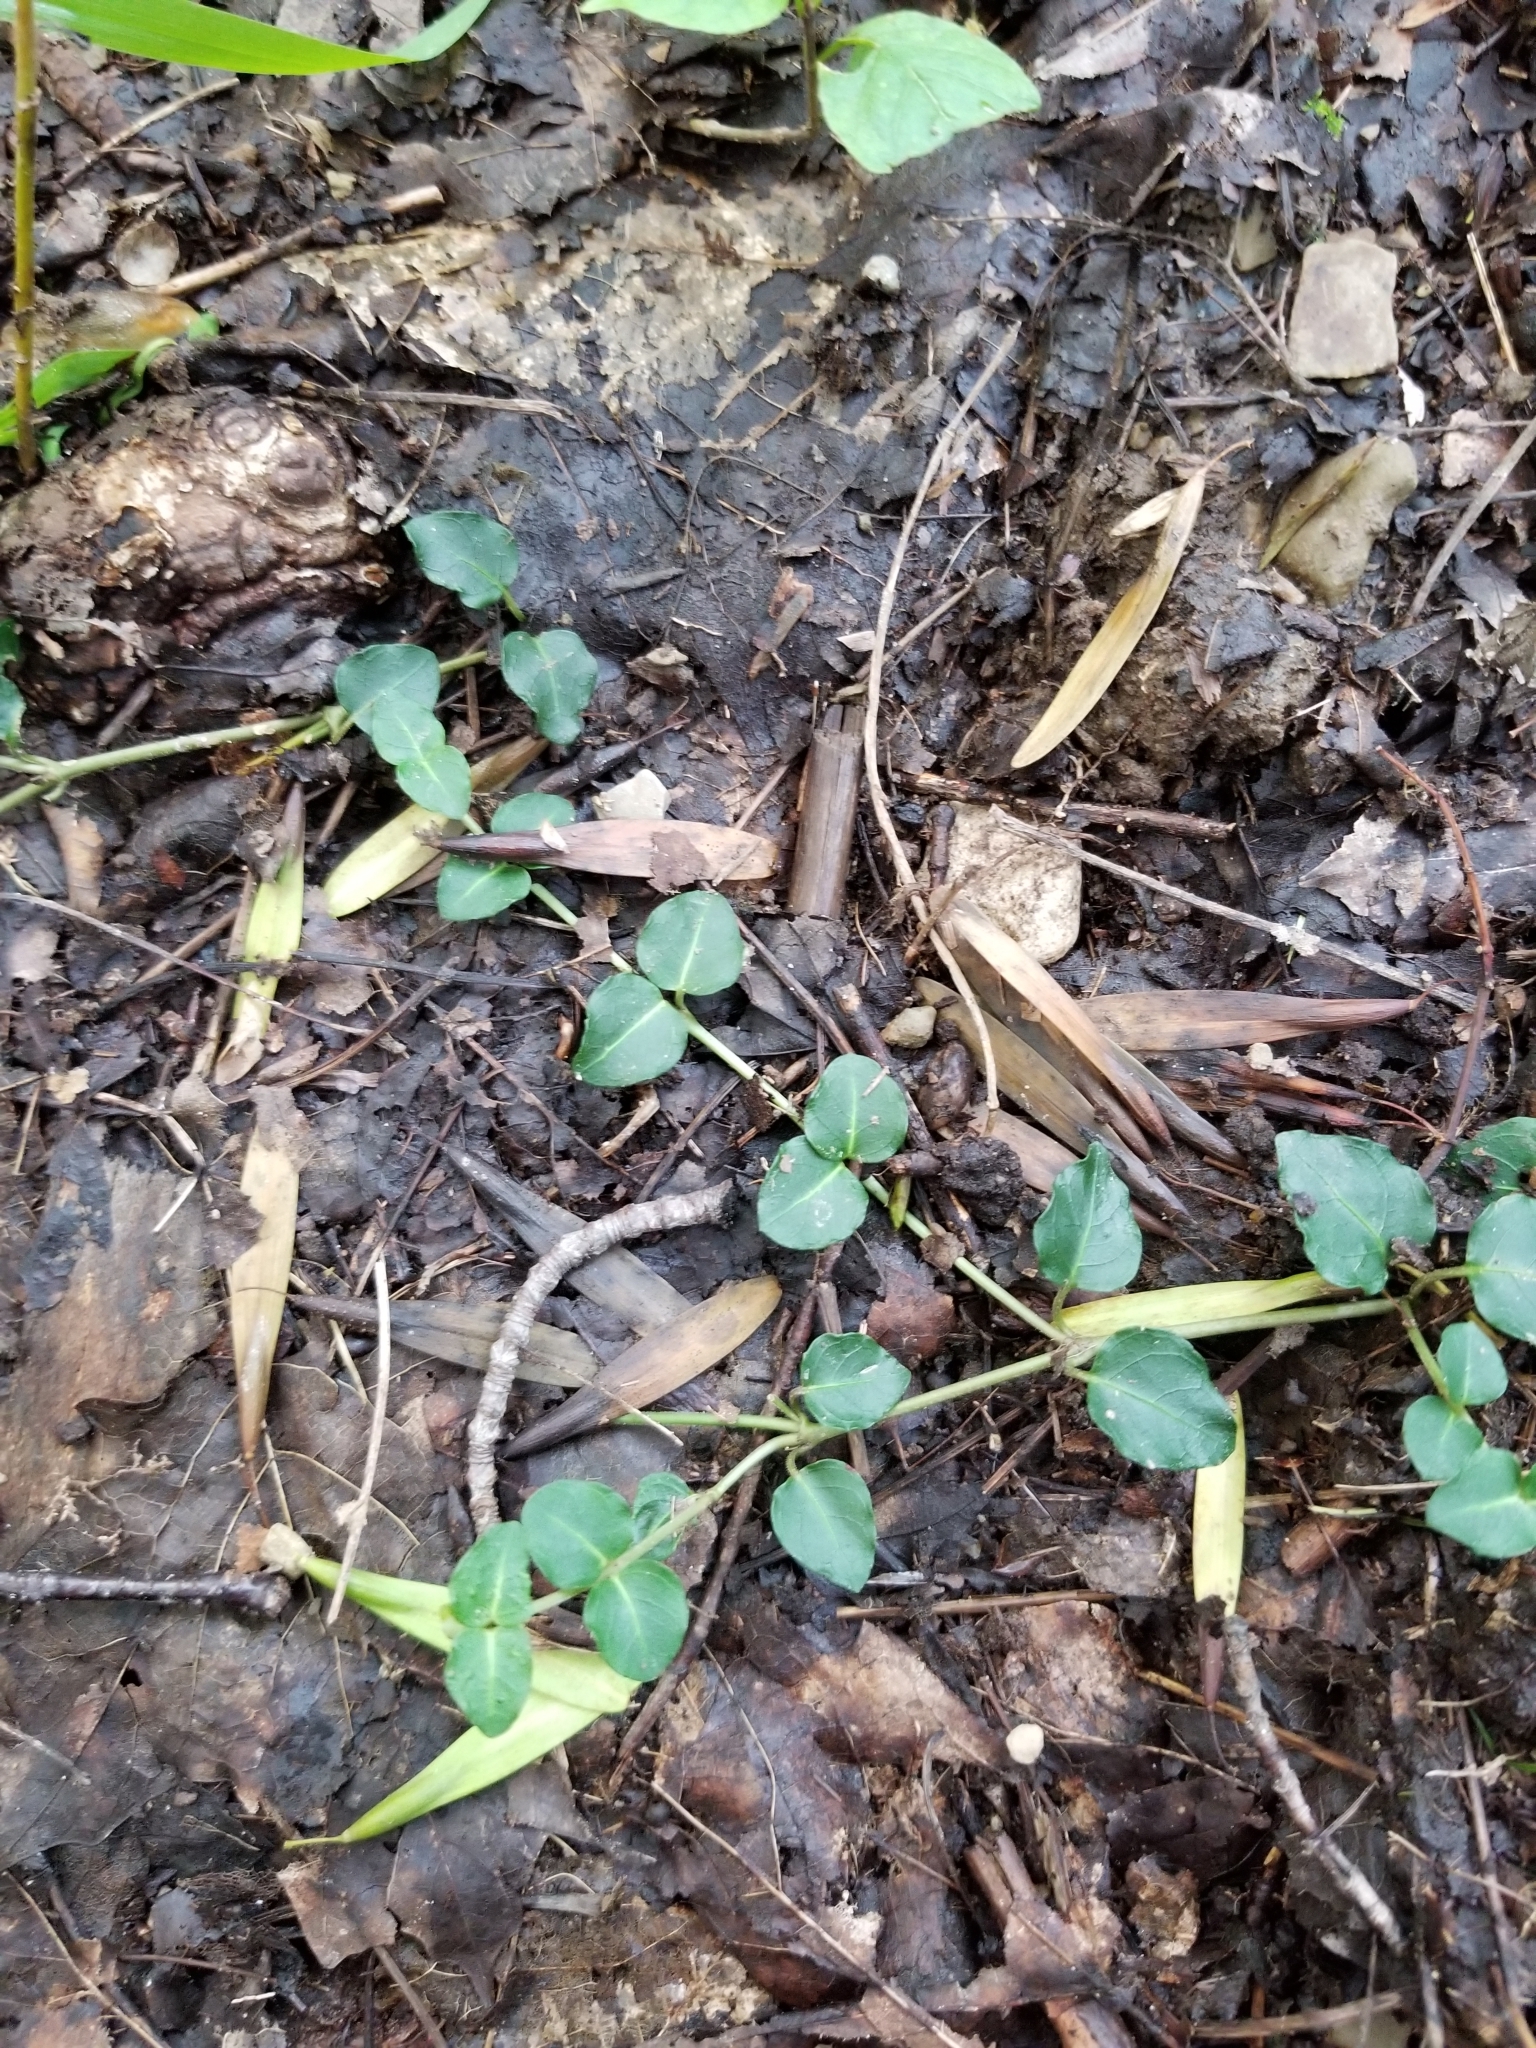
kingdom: Plantae
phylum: Tracheophyta
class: Magnoliopsida
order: Gentianales
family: Rubiaceae
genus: Mitchella
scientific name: Mitchella repens
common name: Partridge-berry
